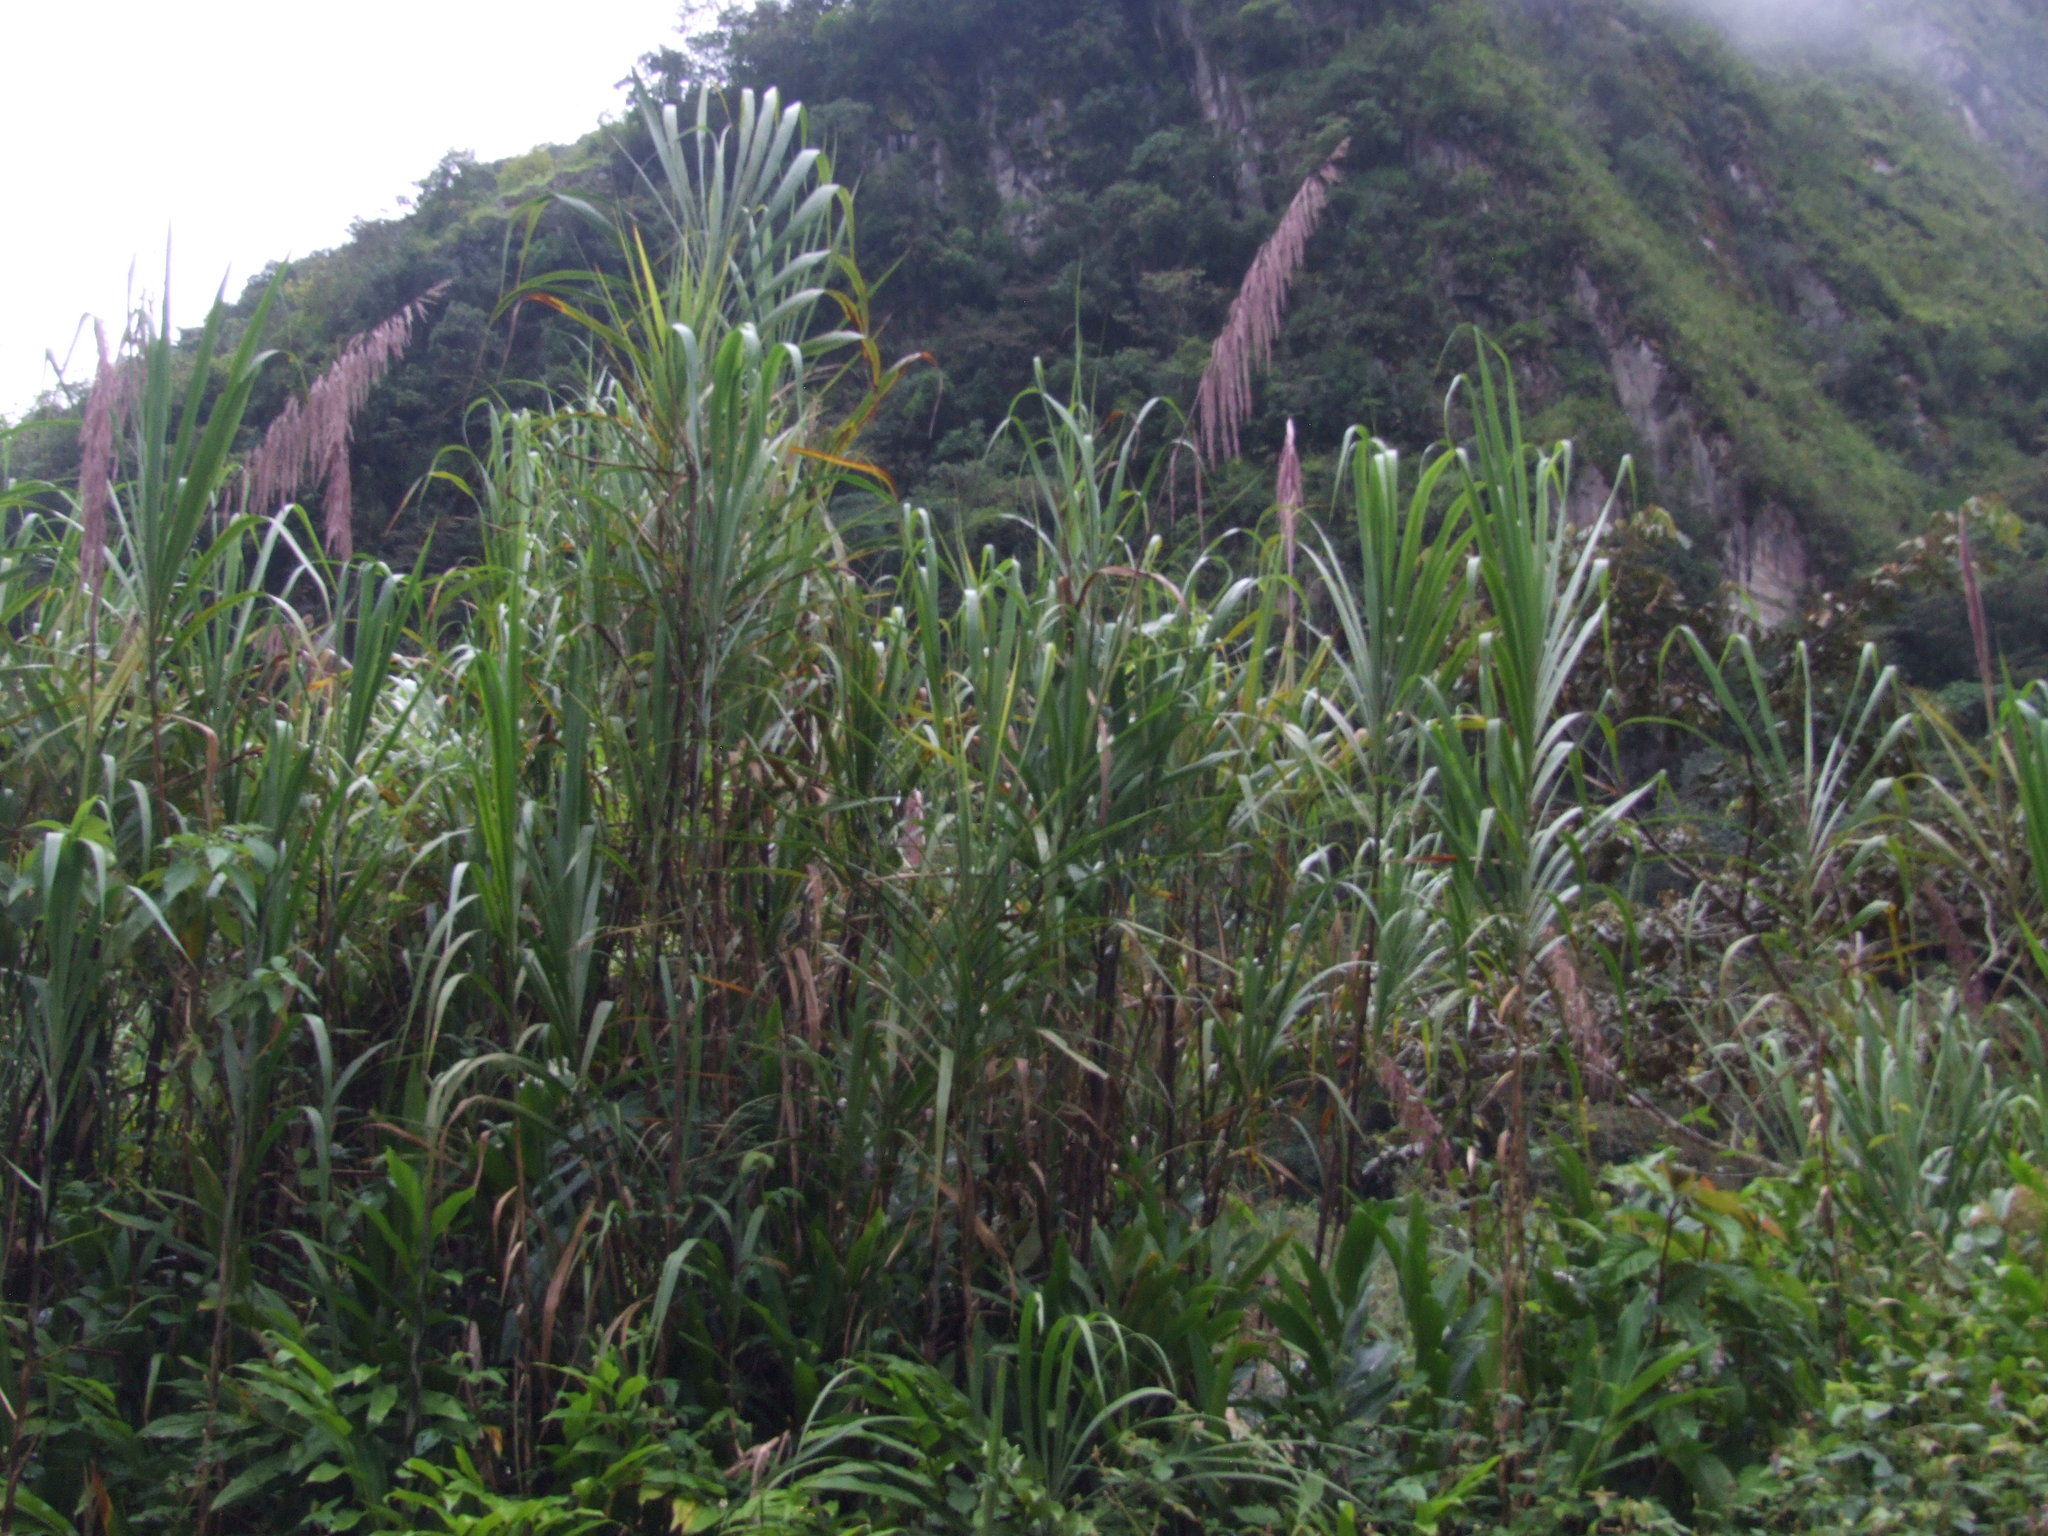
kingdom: Plantae
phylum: Tracheophyta
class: Liliopsida
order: Poales
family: Poaceae
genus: Gynerium
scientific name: Gynerium sagittatum
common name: Wild cane
